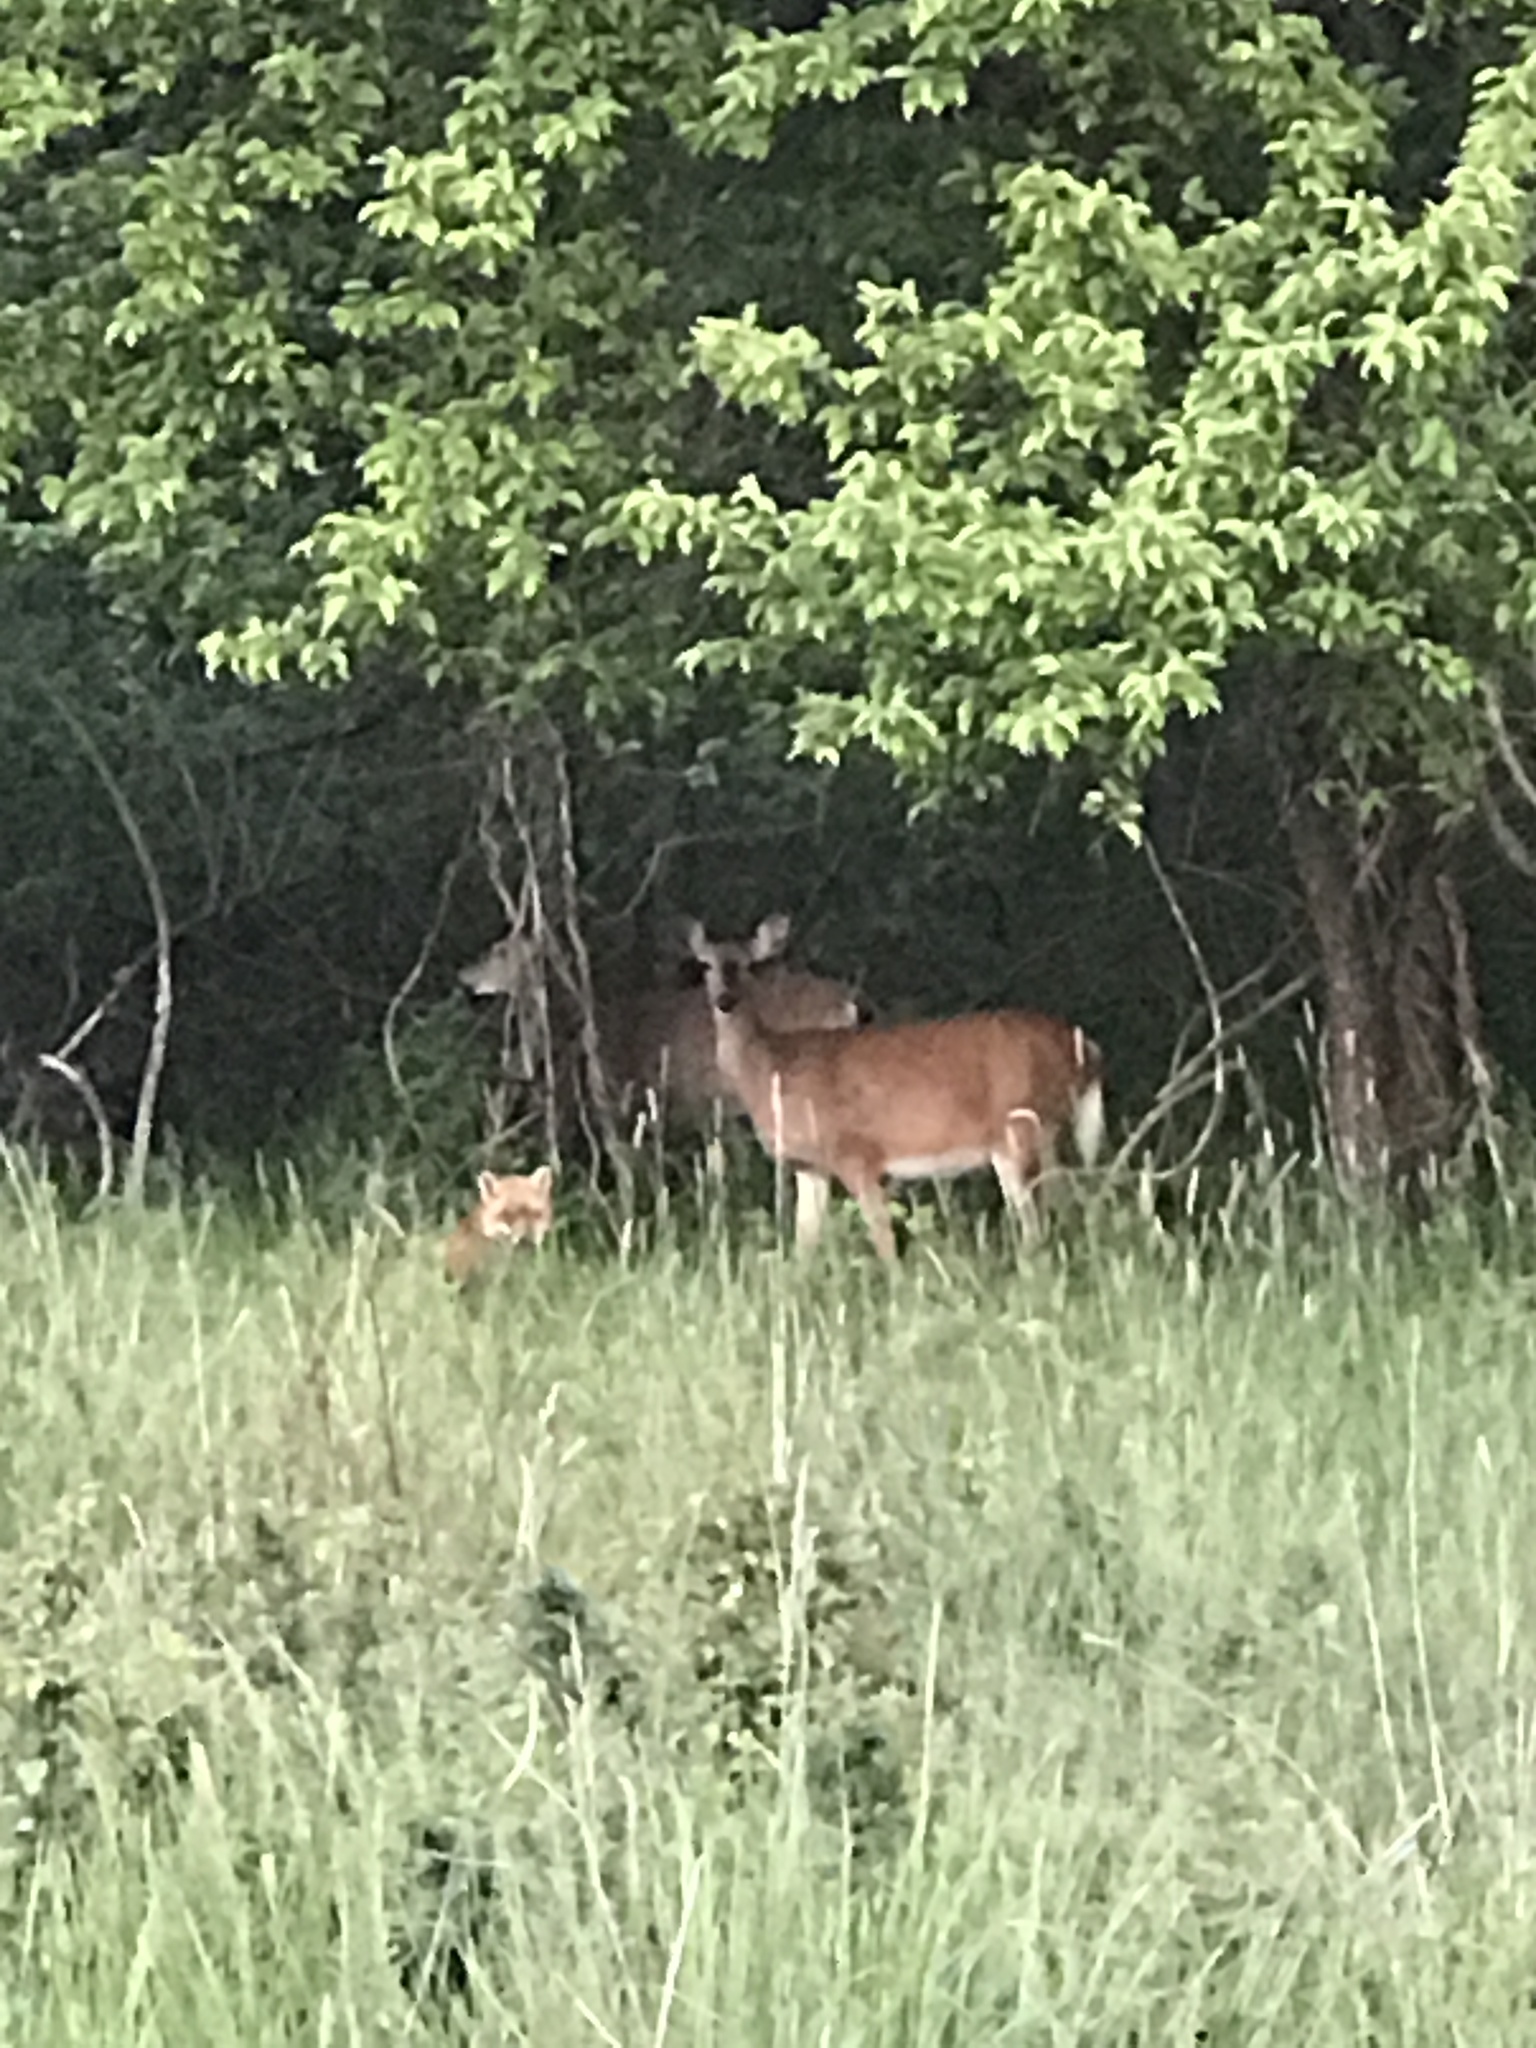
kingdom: Animalia
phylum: Chordata
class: Mammalia
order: Carnivora
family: Canidae
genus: Vulpes
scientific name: Vulpes vulpes
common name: Red fox
